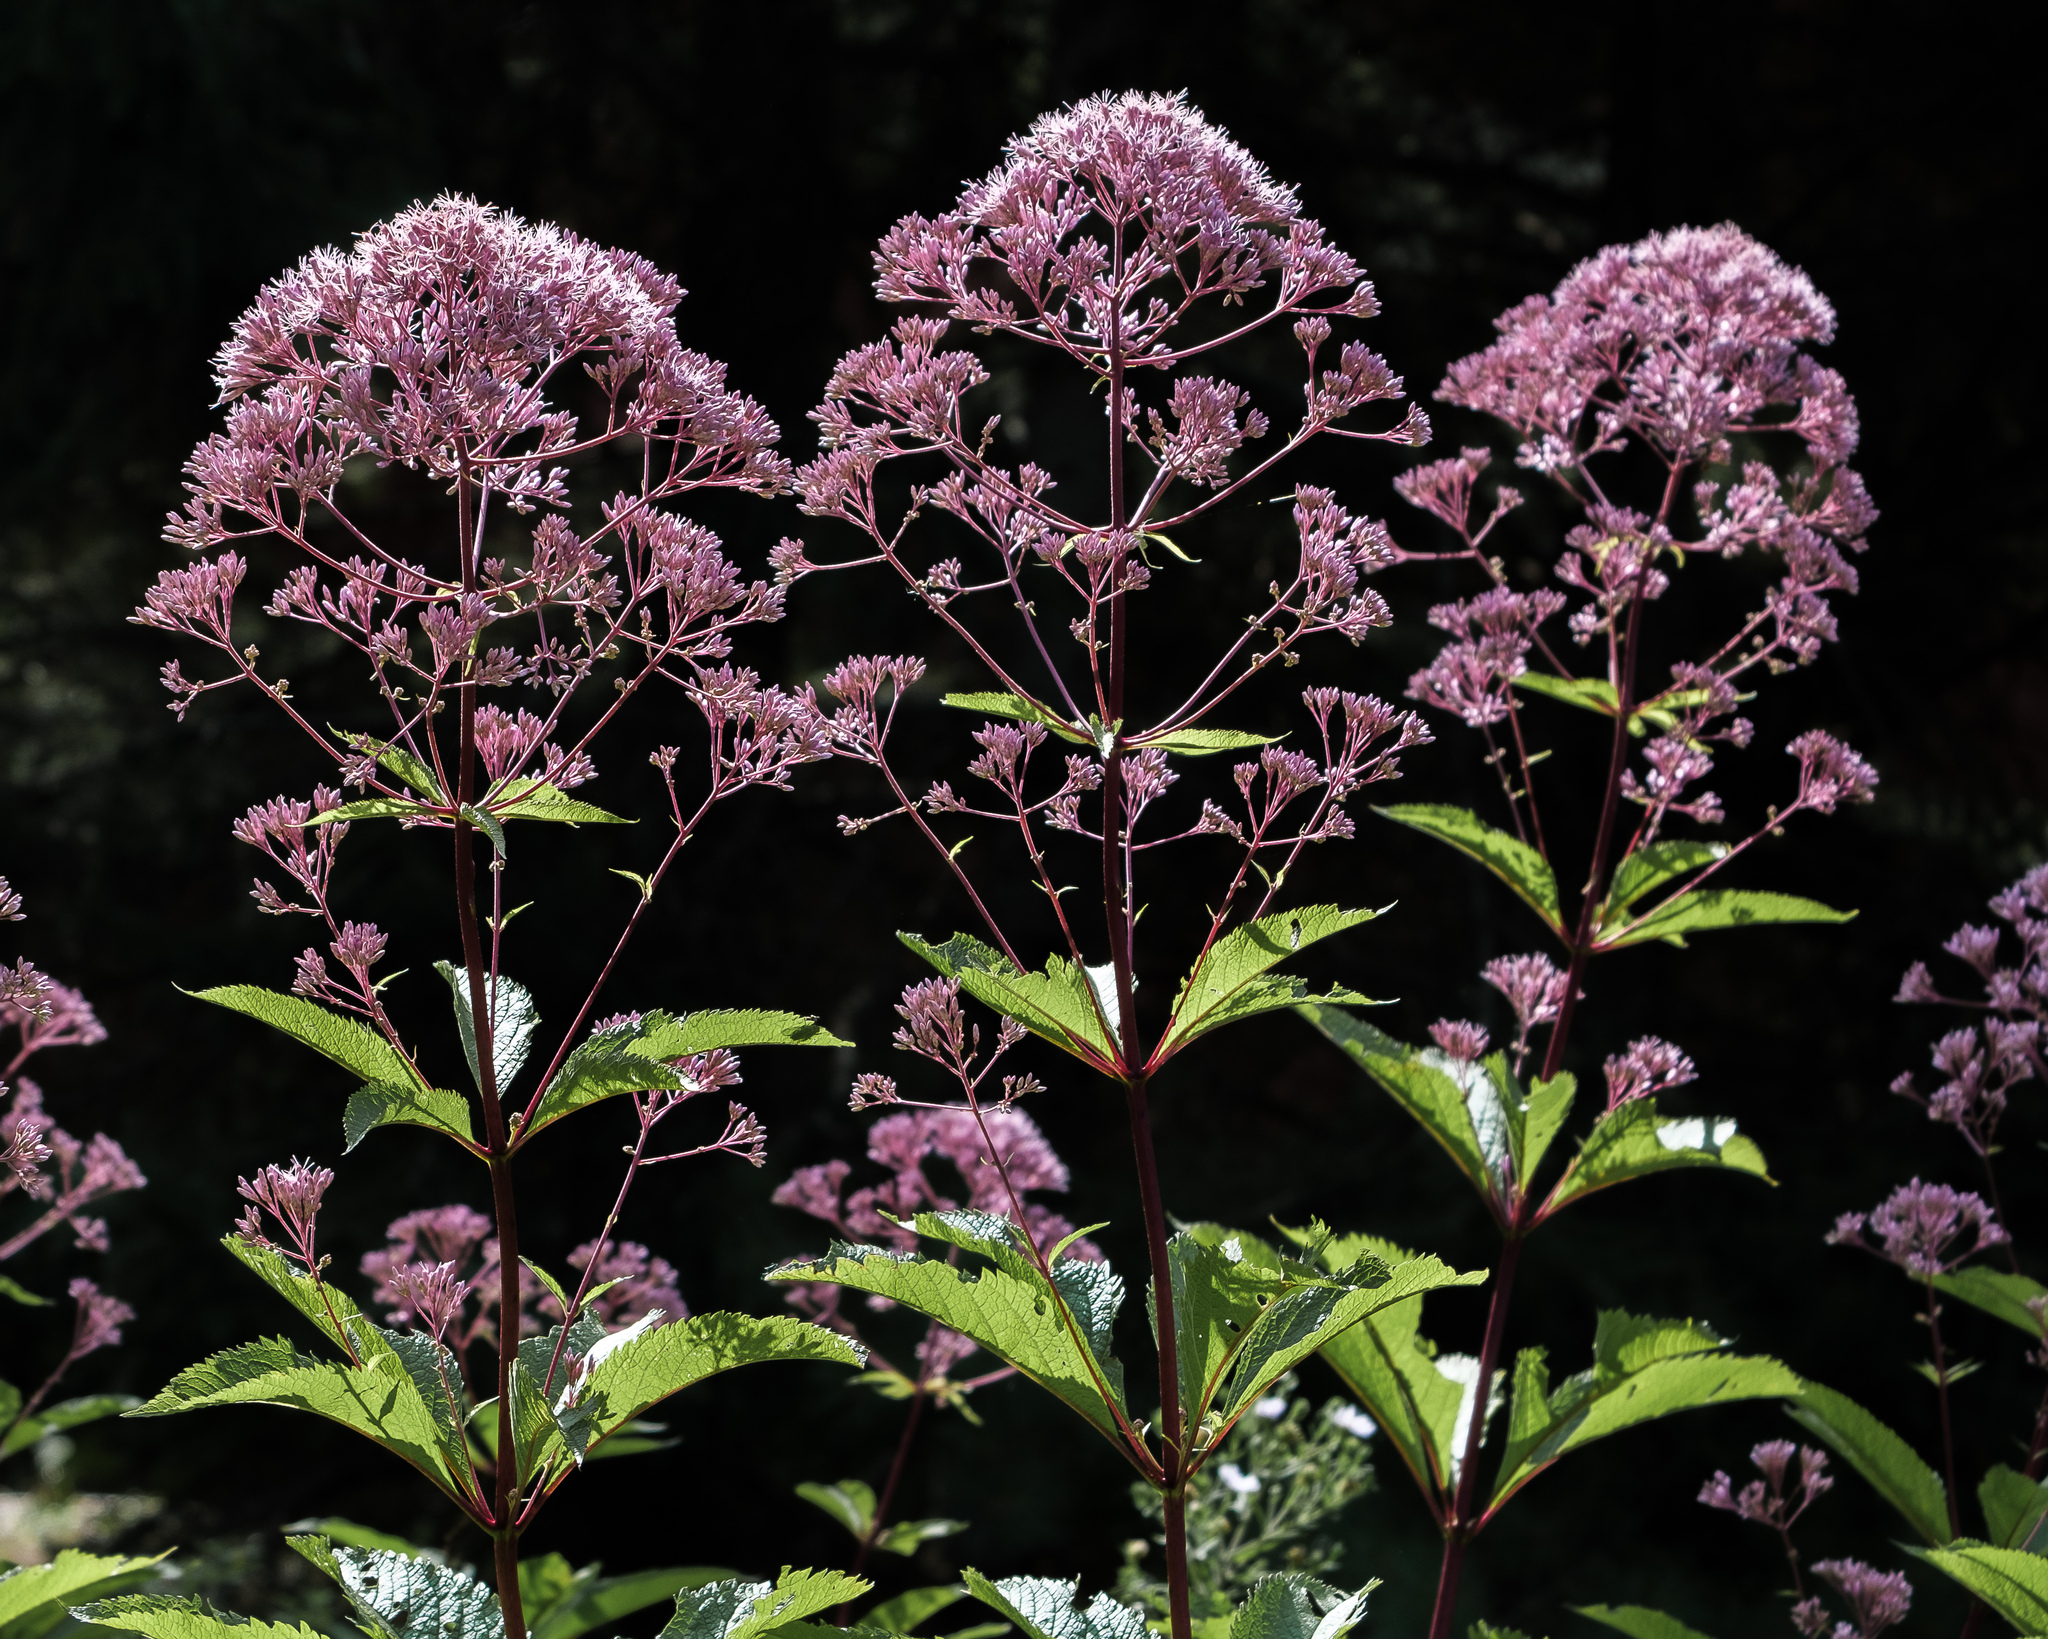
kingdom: Plantae
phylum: Tracheophyta
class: Magnoliopsida
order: Asterales
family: Asteraceae
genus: Eutrochium
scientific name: Eutrochium maculatum
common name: Spotted joe pye weed
